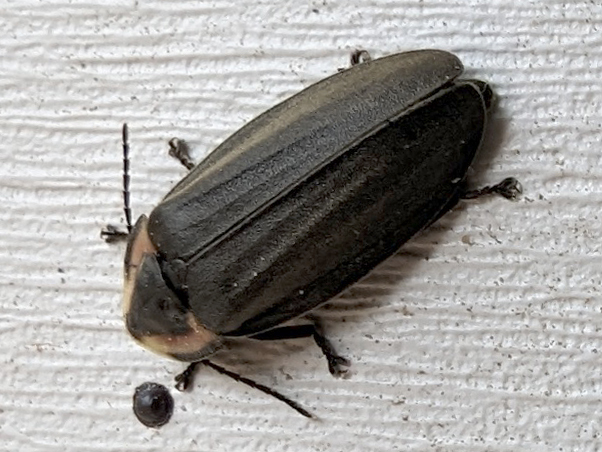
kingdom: Animalia
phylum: Arthropoda
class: Insecta
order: Coleoptera
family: Lampyridae
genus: Photinus
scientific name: Photinus corrusca
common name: Winter firefly
